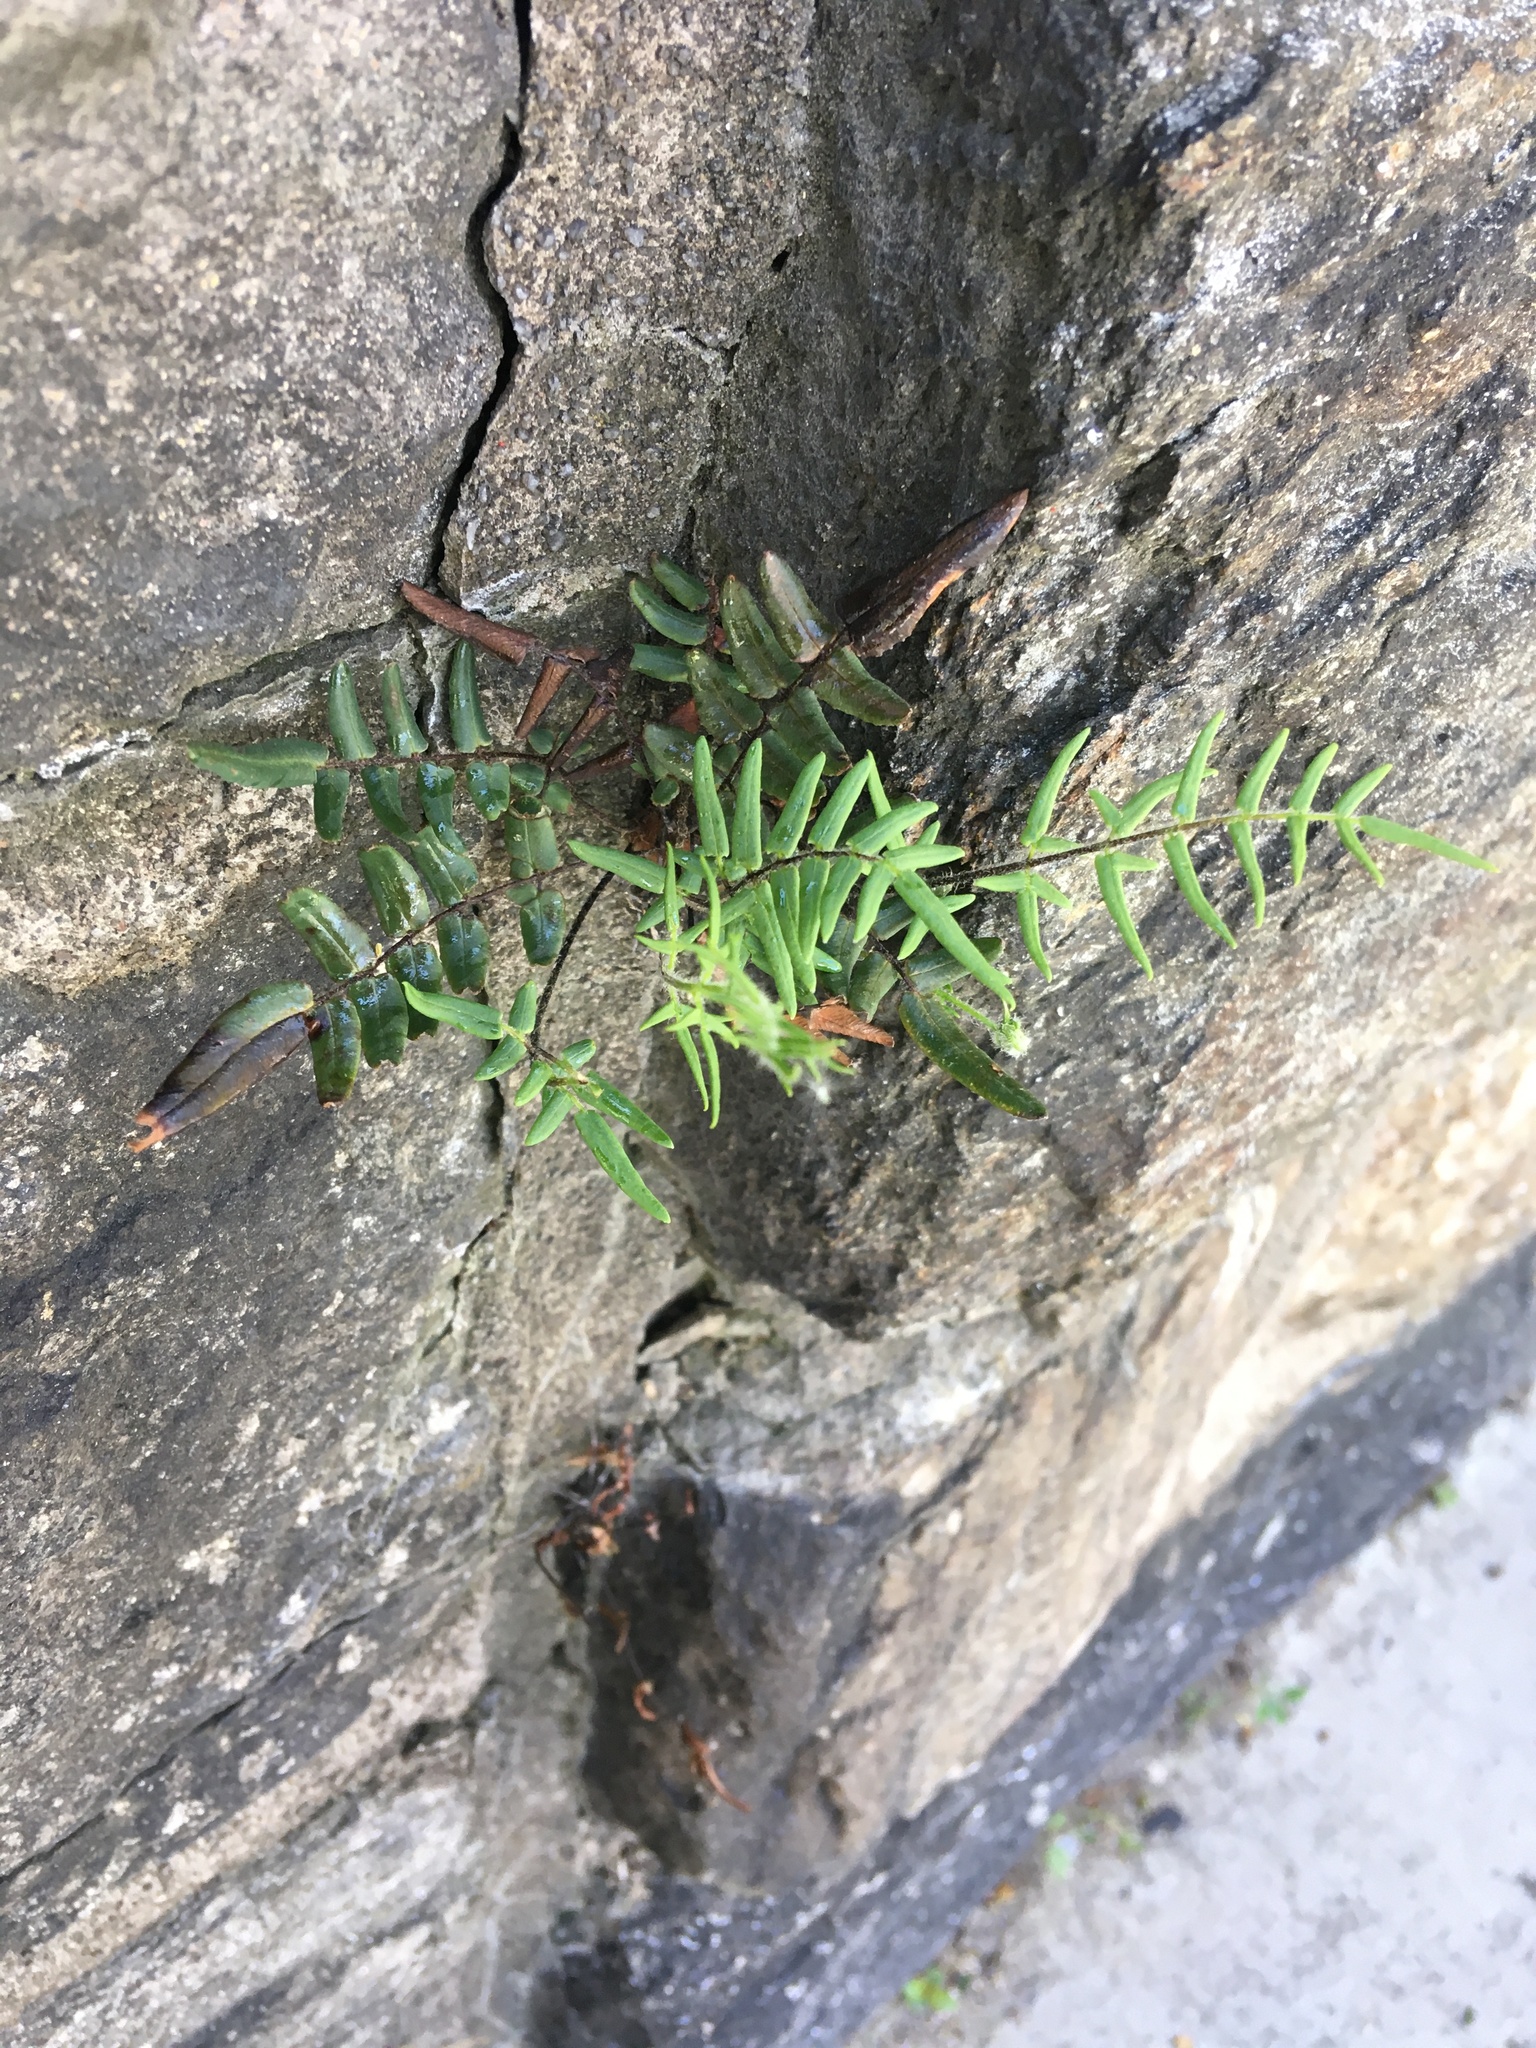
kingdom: Plantae
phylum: Tracheophyta
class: Polypodiopsida
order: Polypodiales
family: Pteridaceae
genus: Pellaea
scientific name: Pellaea atropurpurea
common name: Hairy cliffbrake
